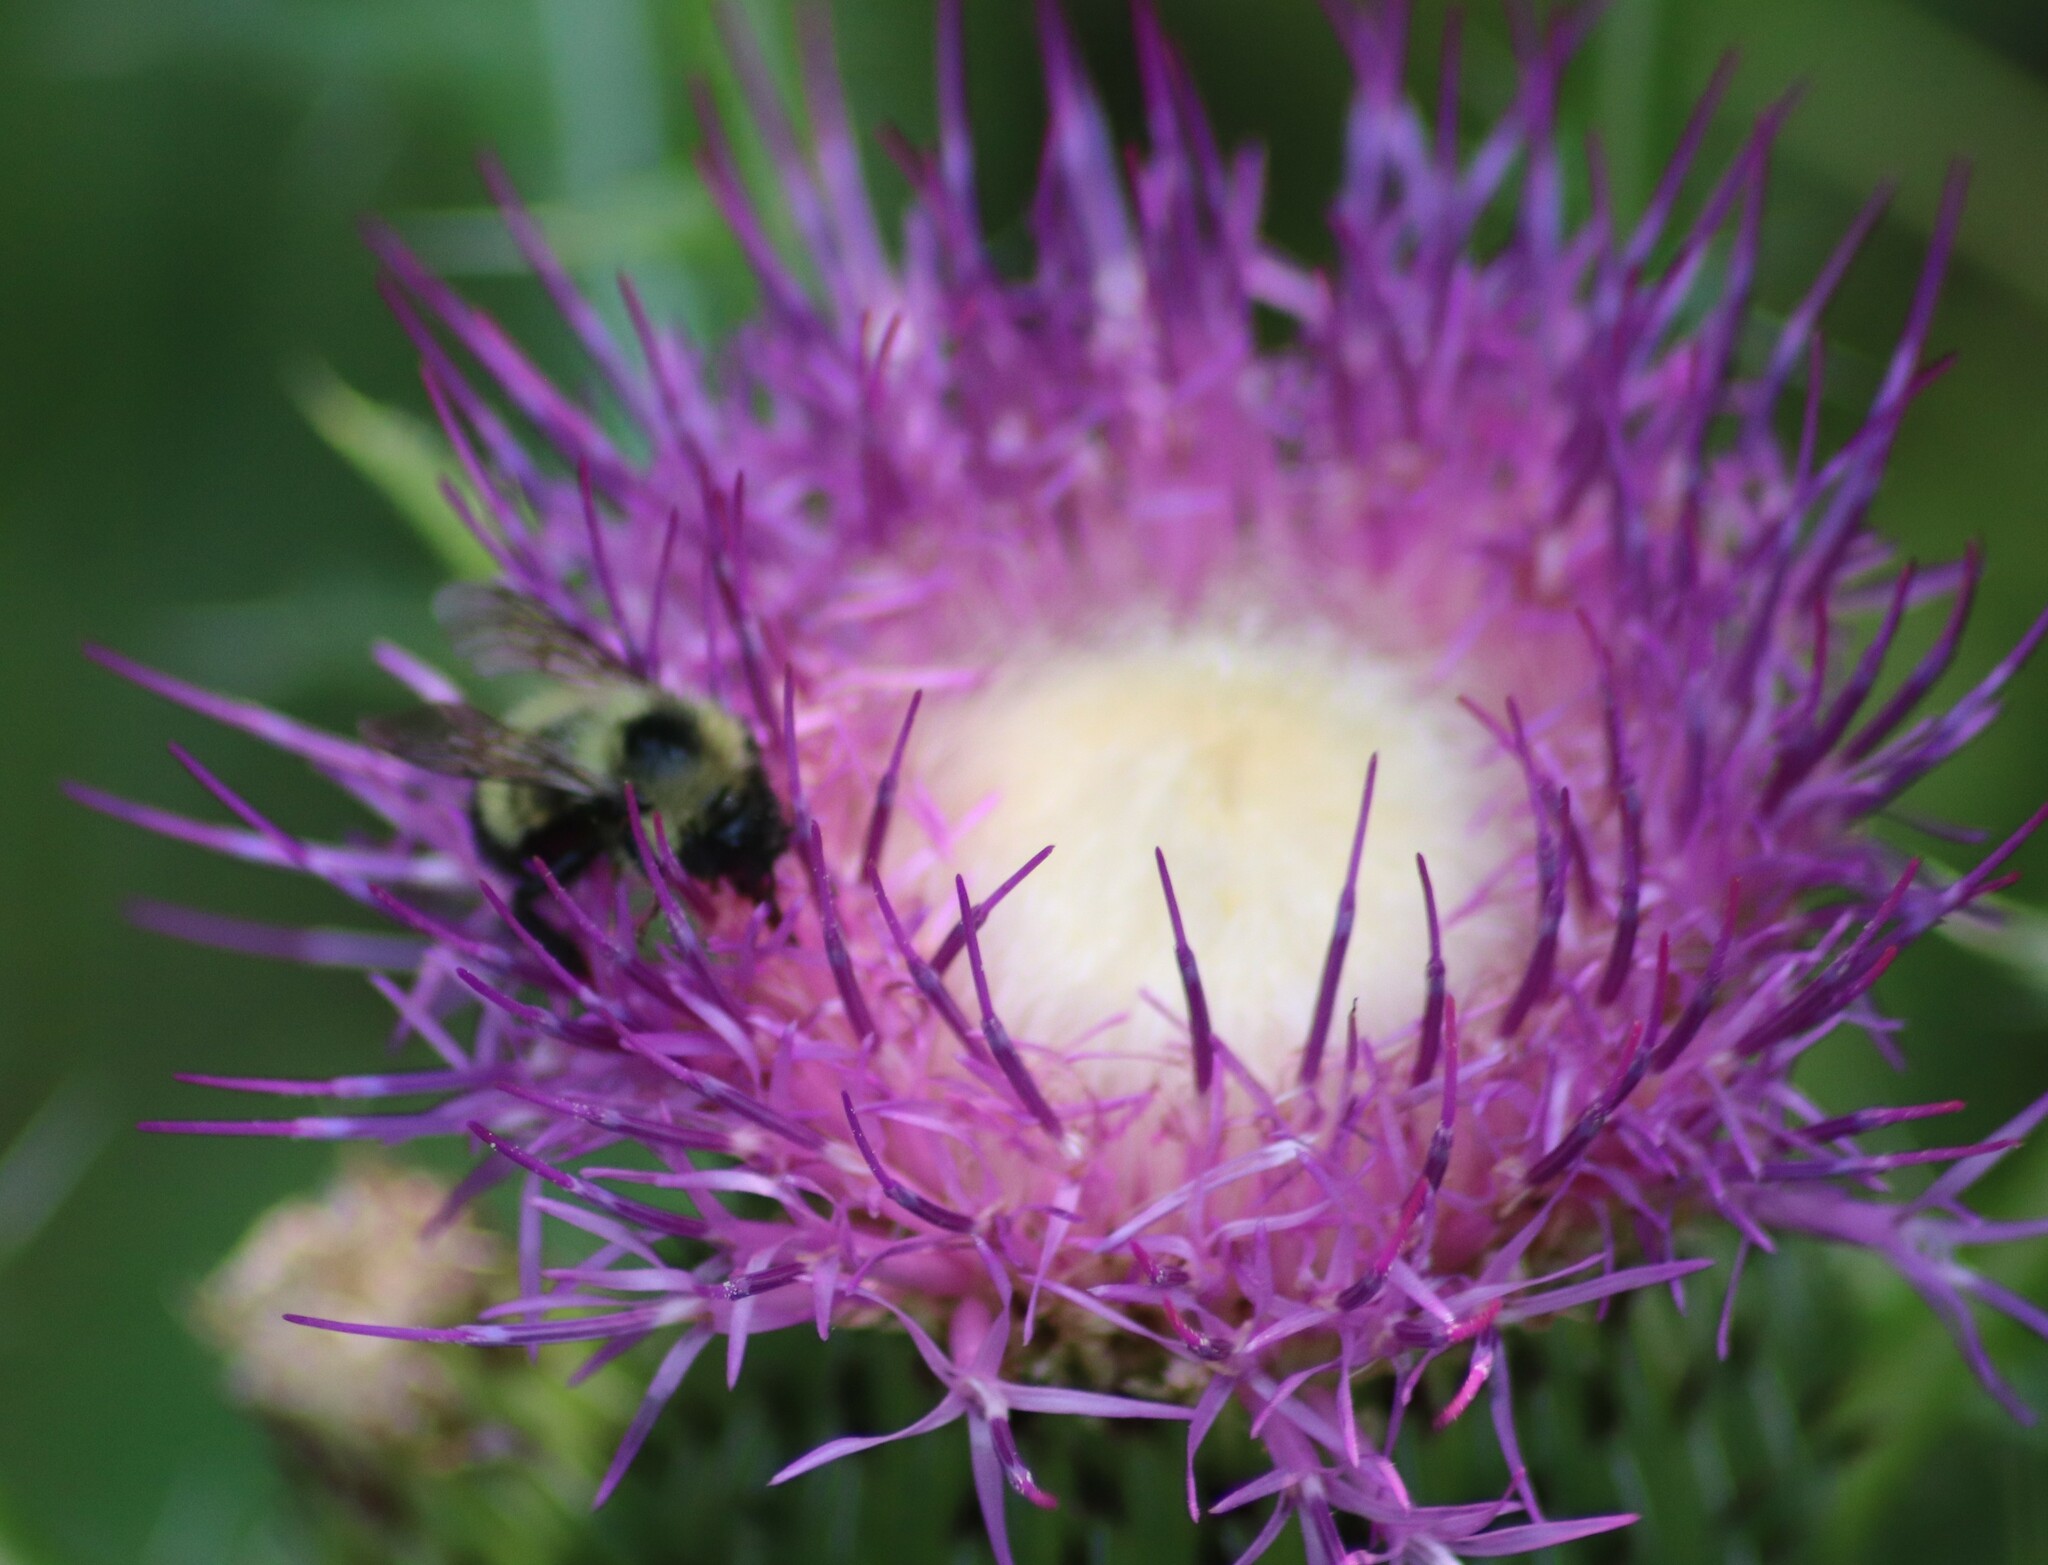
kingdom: Animalia
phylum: Arthropoda
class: Insecta
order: Hymenoptera
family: Apidae
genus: Pyrobombus
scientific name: Pyrobombus
